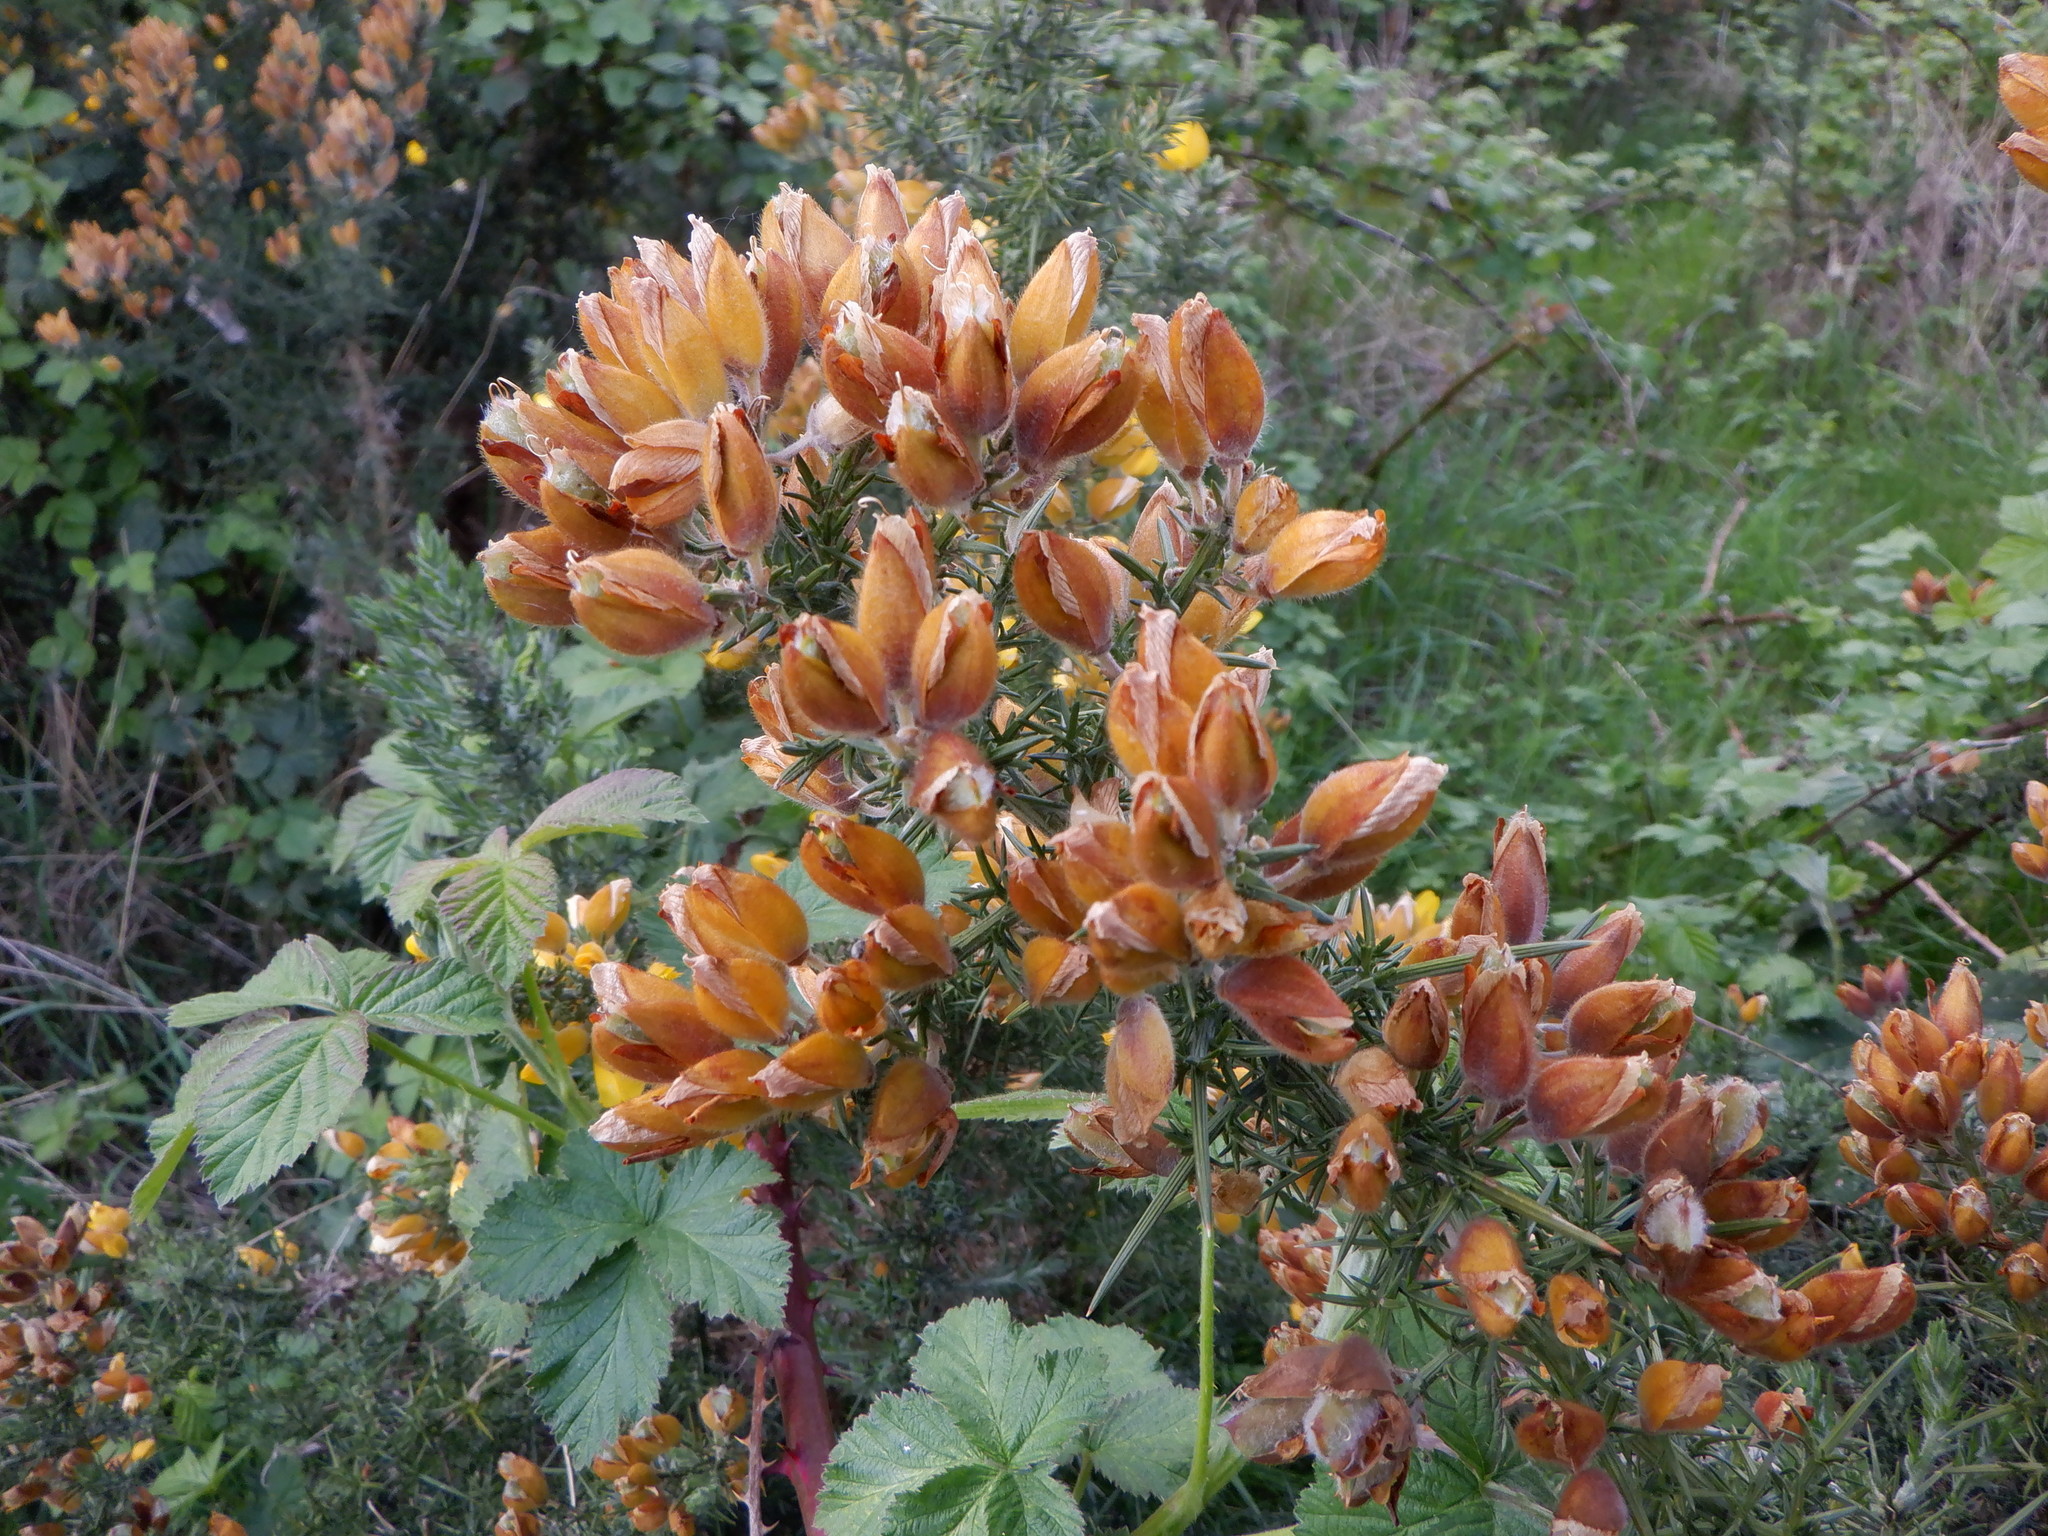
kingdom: Plantae
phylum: Tracheophyta
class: Magnoliopsida
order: Fabales
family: Fabaceae
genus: Ulex
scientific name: Ulex europaeus
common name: Common gorse
